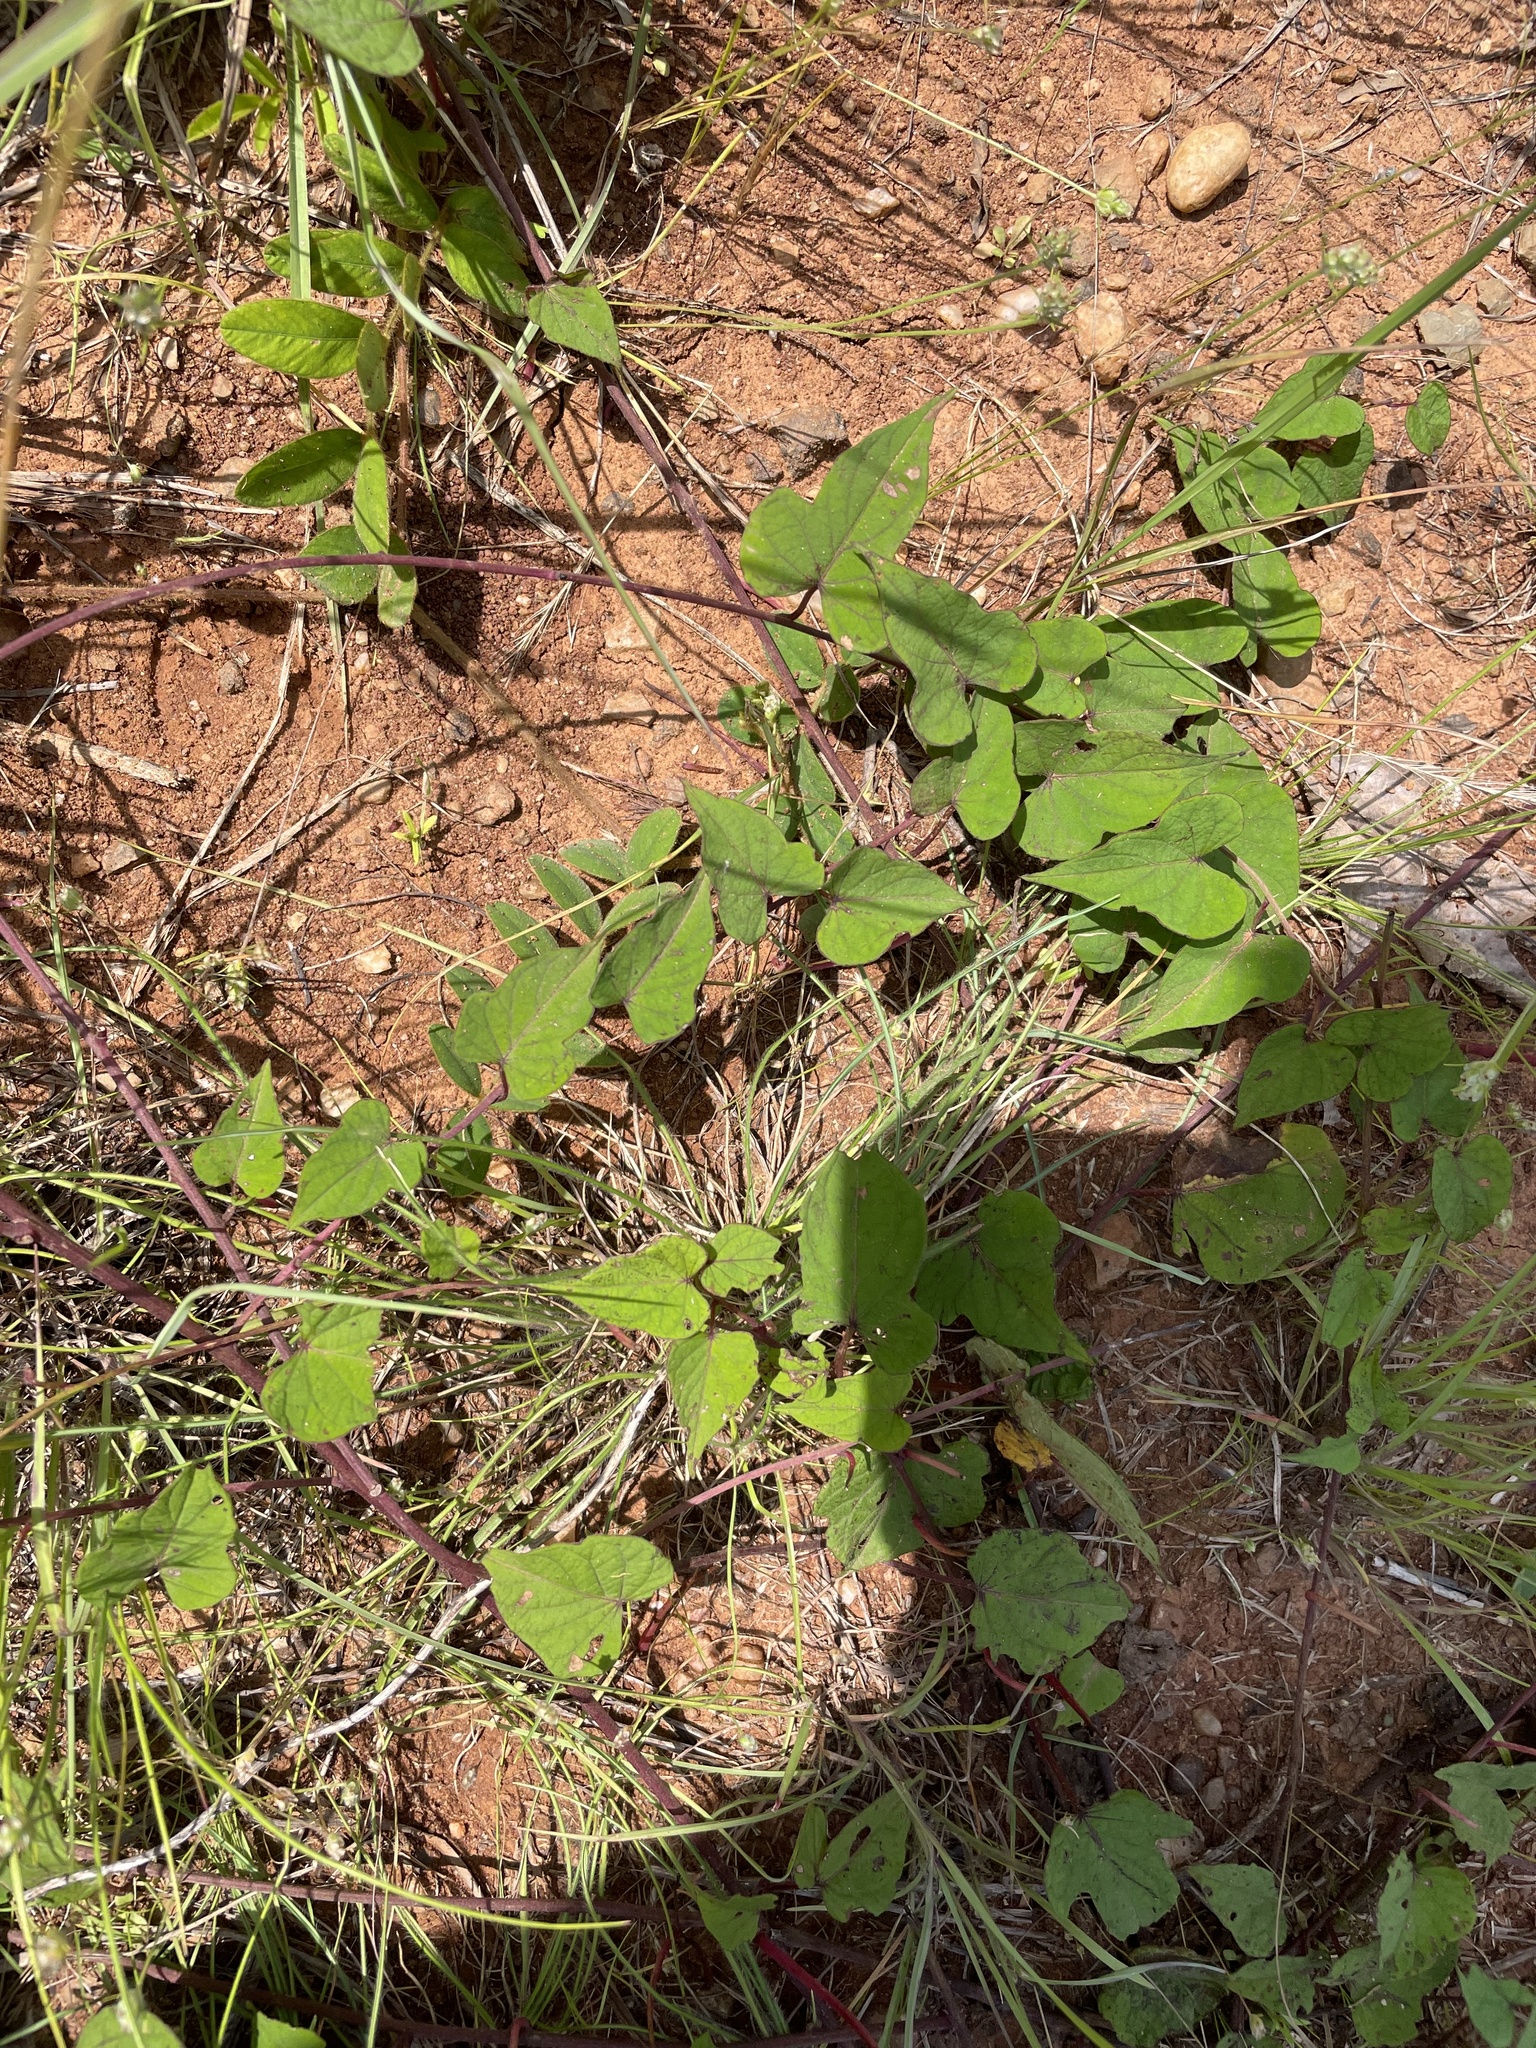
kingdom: Plantae
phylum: Tracheophyta
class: Magnoliopsida
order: Solanales
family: Convolvulaceae
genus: Ipomoea
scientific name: Ipomoea pandurata
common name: Man-of-the-earth
